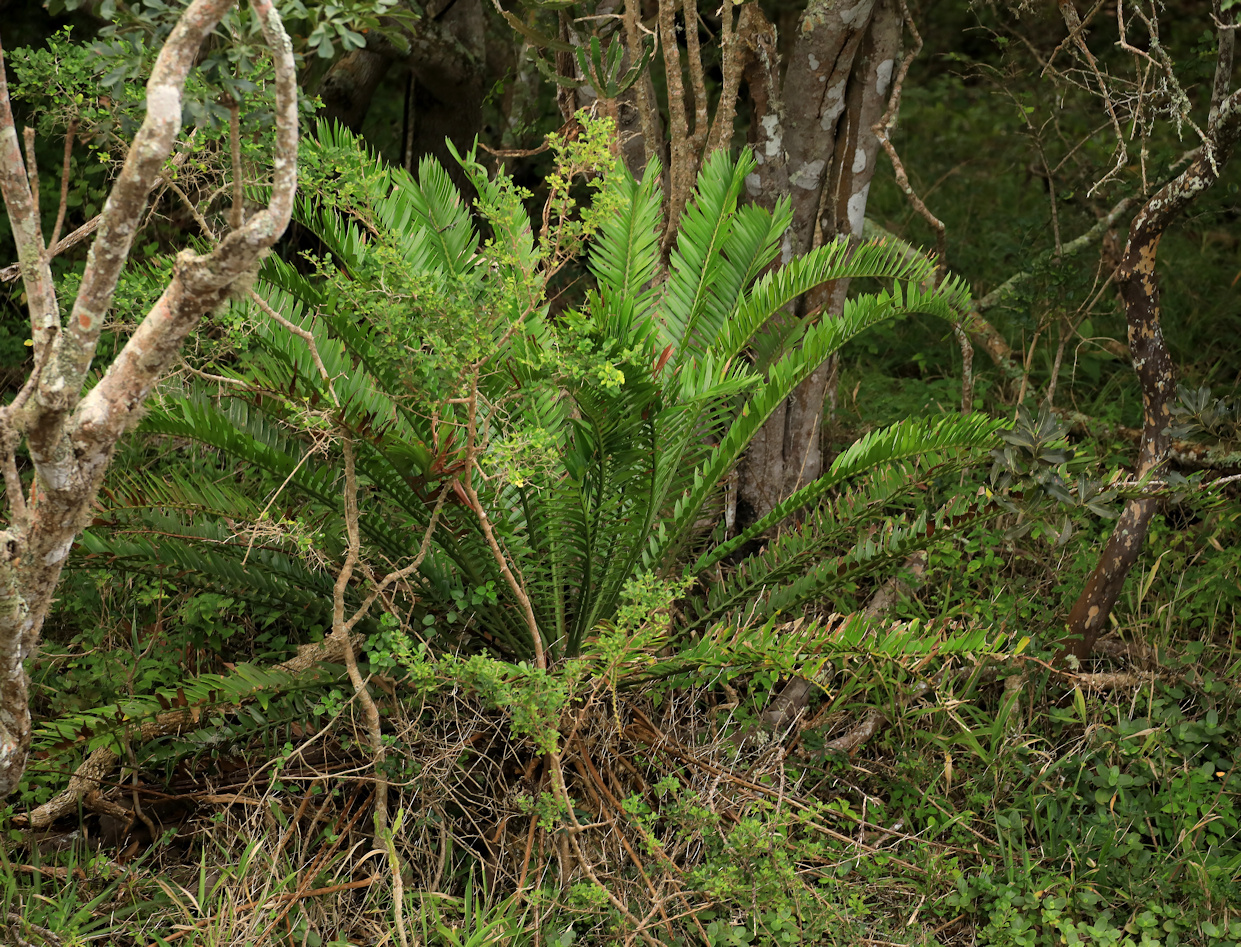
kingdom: Plantae
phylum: Tracheophyta
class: Cycadopsida
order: Cycadales
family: Zamiaceae
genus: Encephalartos
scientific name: Encephalartos altensteinii
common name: Eastern cape cycad
